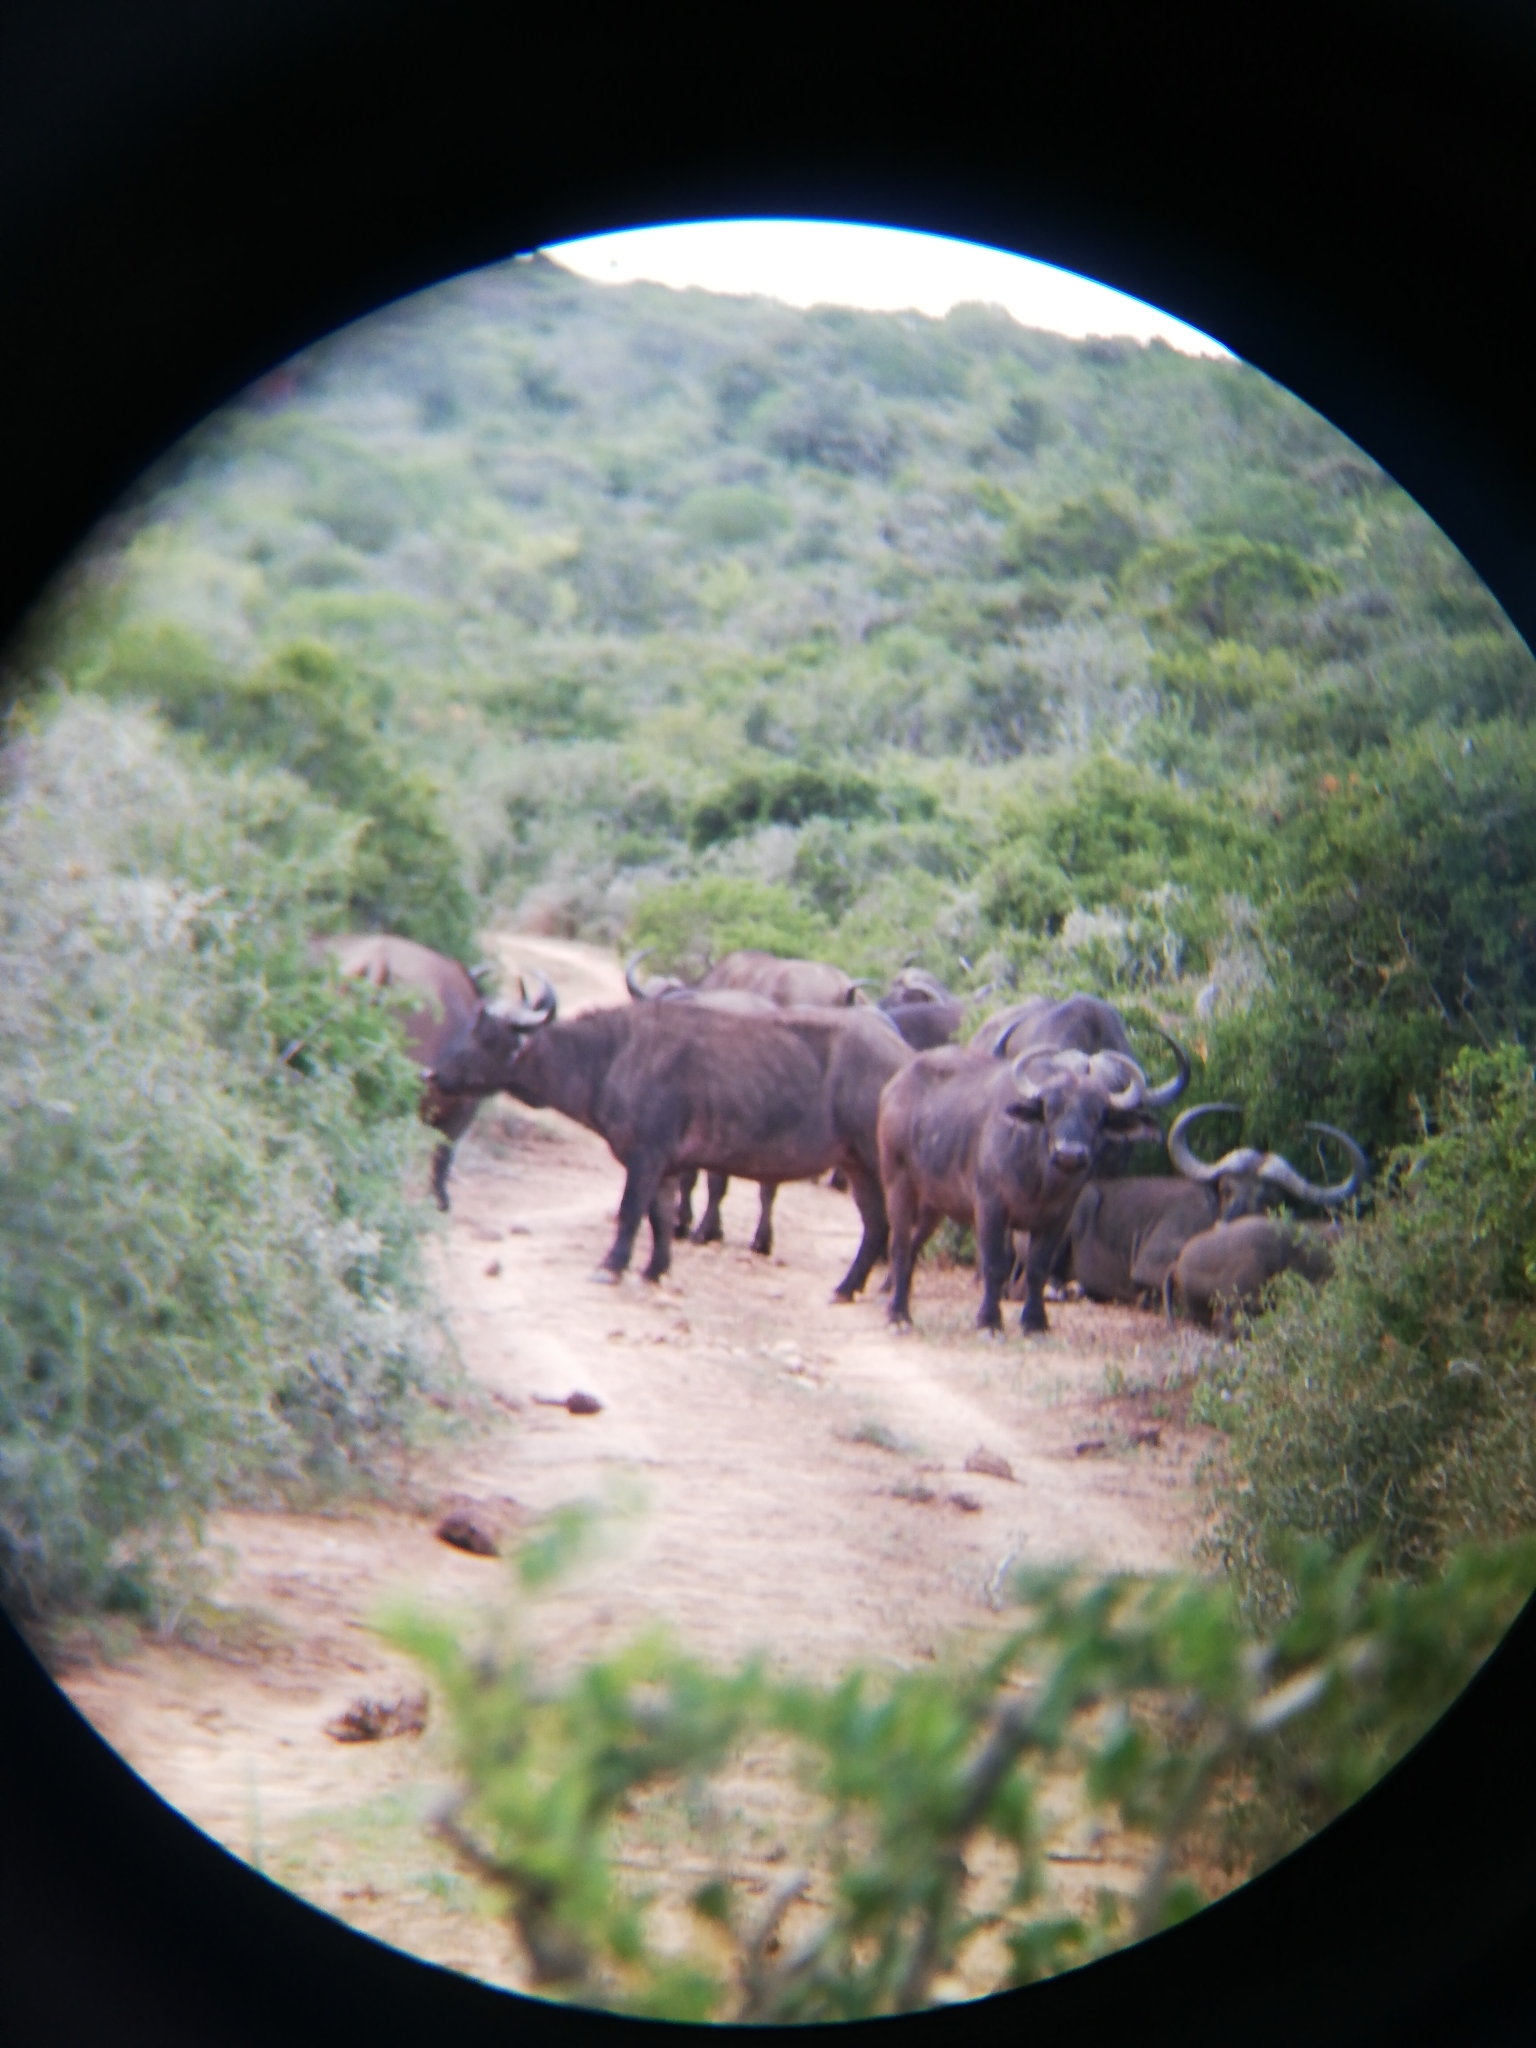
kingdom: Animalia
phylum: Chordata
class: Mammalia
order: Artiodactyla
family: Bovidae
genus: Syncerus
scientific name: Syncerus caffer
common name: African buffalo
